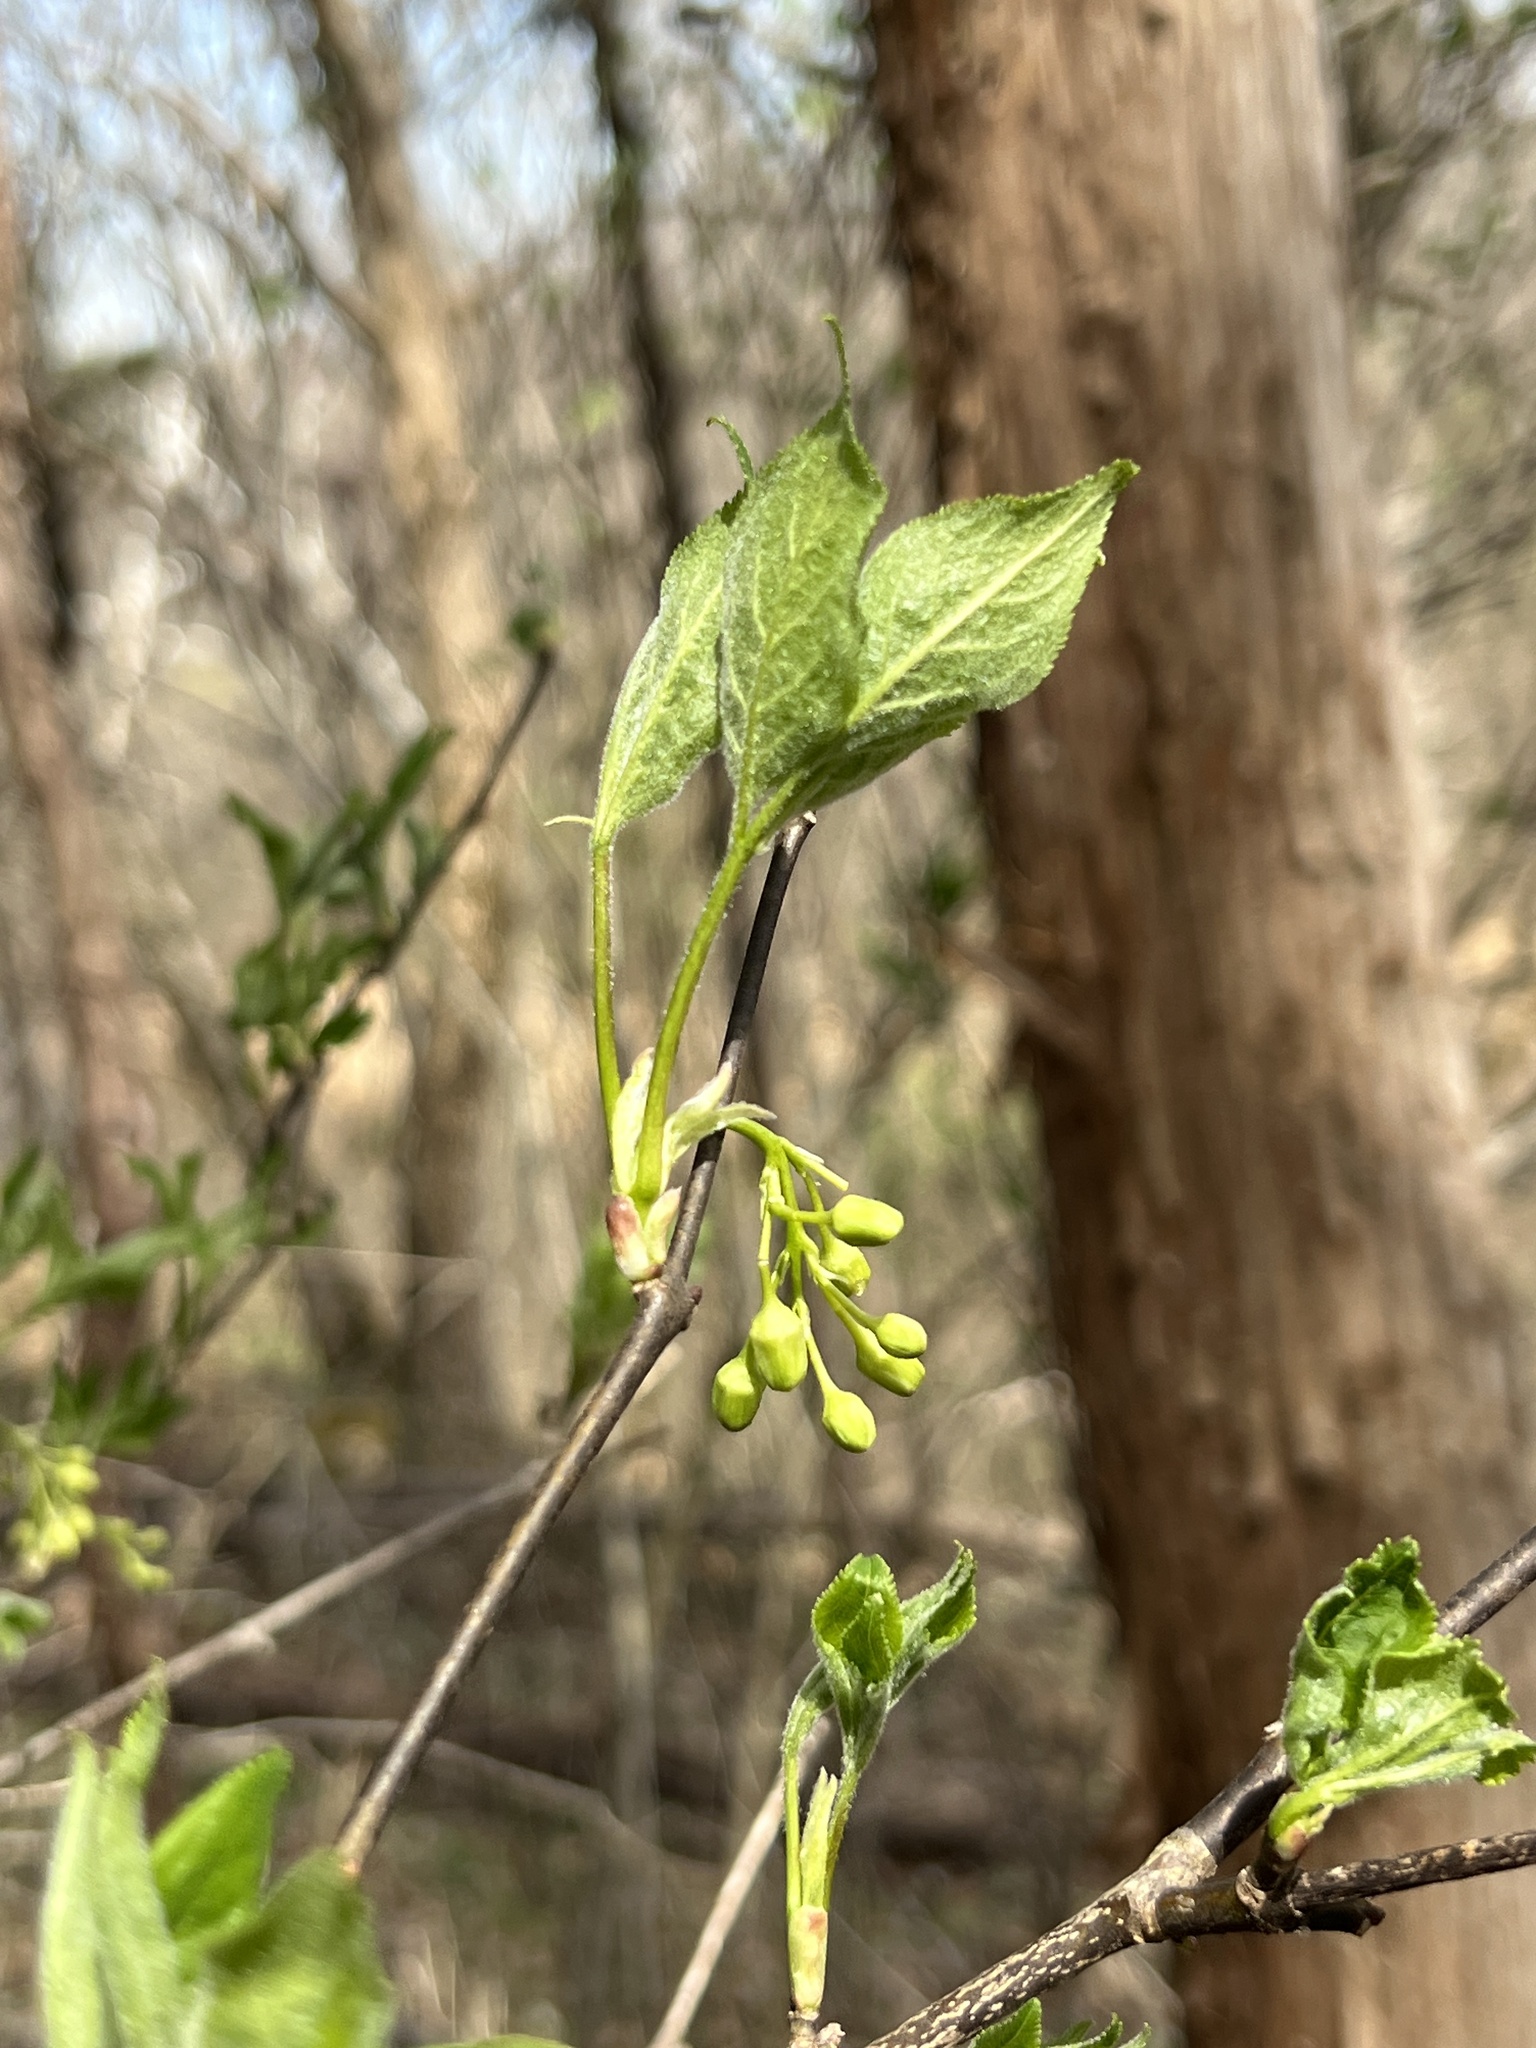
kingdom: Plantae
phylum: Tracheophyta
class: Magnoliopsida
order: Crossosomatales
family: Staphyleaceae
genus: Staphylea
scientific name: Staphylea trifolia
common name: American bladdernut
